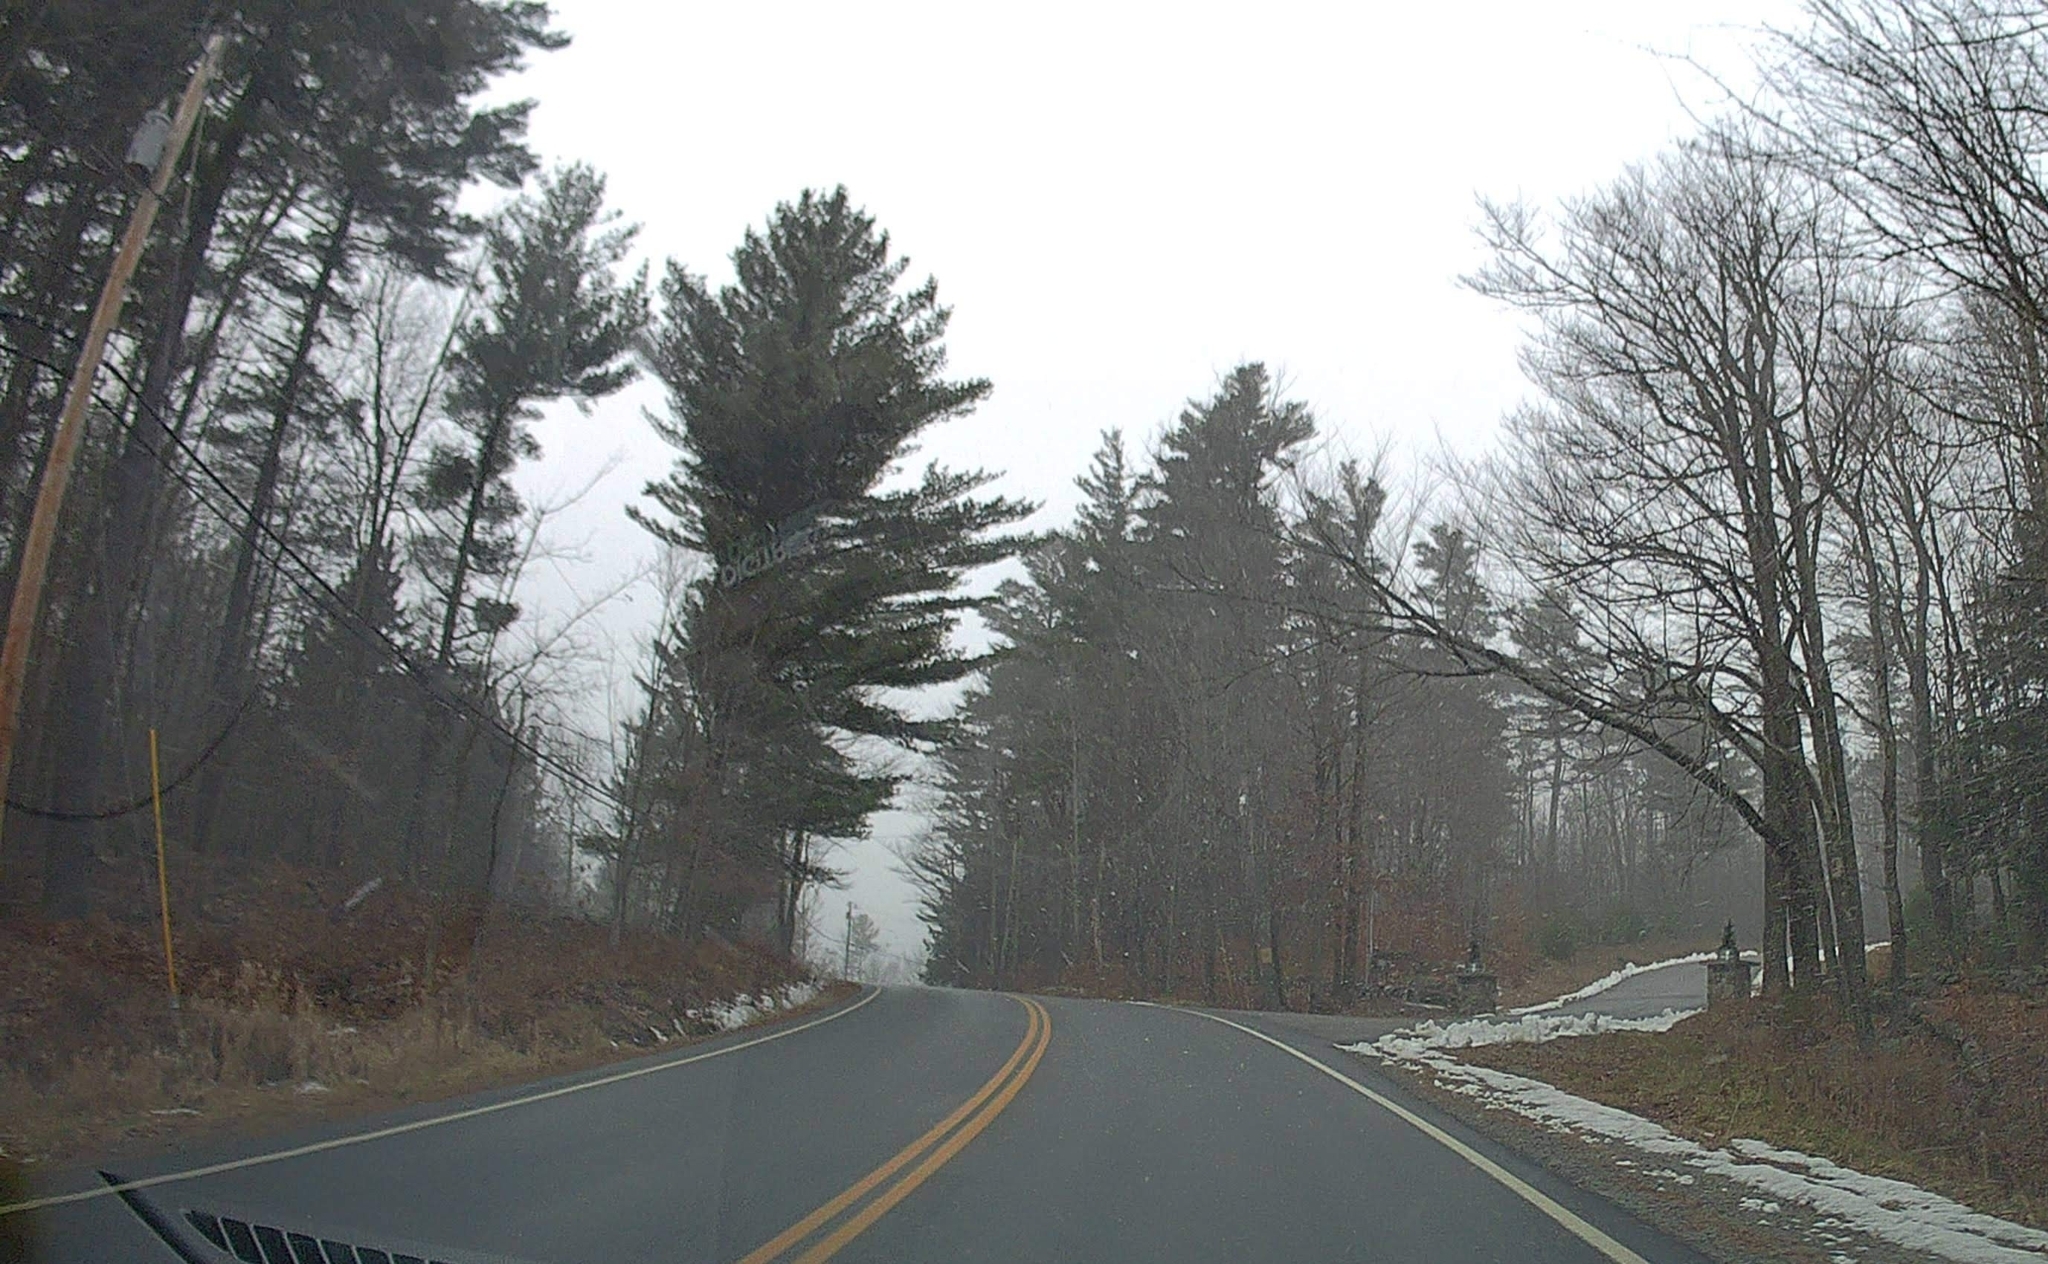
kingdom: Plantae
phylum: Tracheophyta
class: Pinopsida
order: Pinales
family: Pinaceae
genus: Pinus
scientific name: Pinus strobus
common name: Weymouth pine
